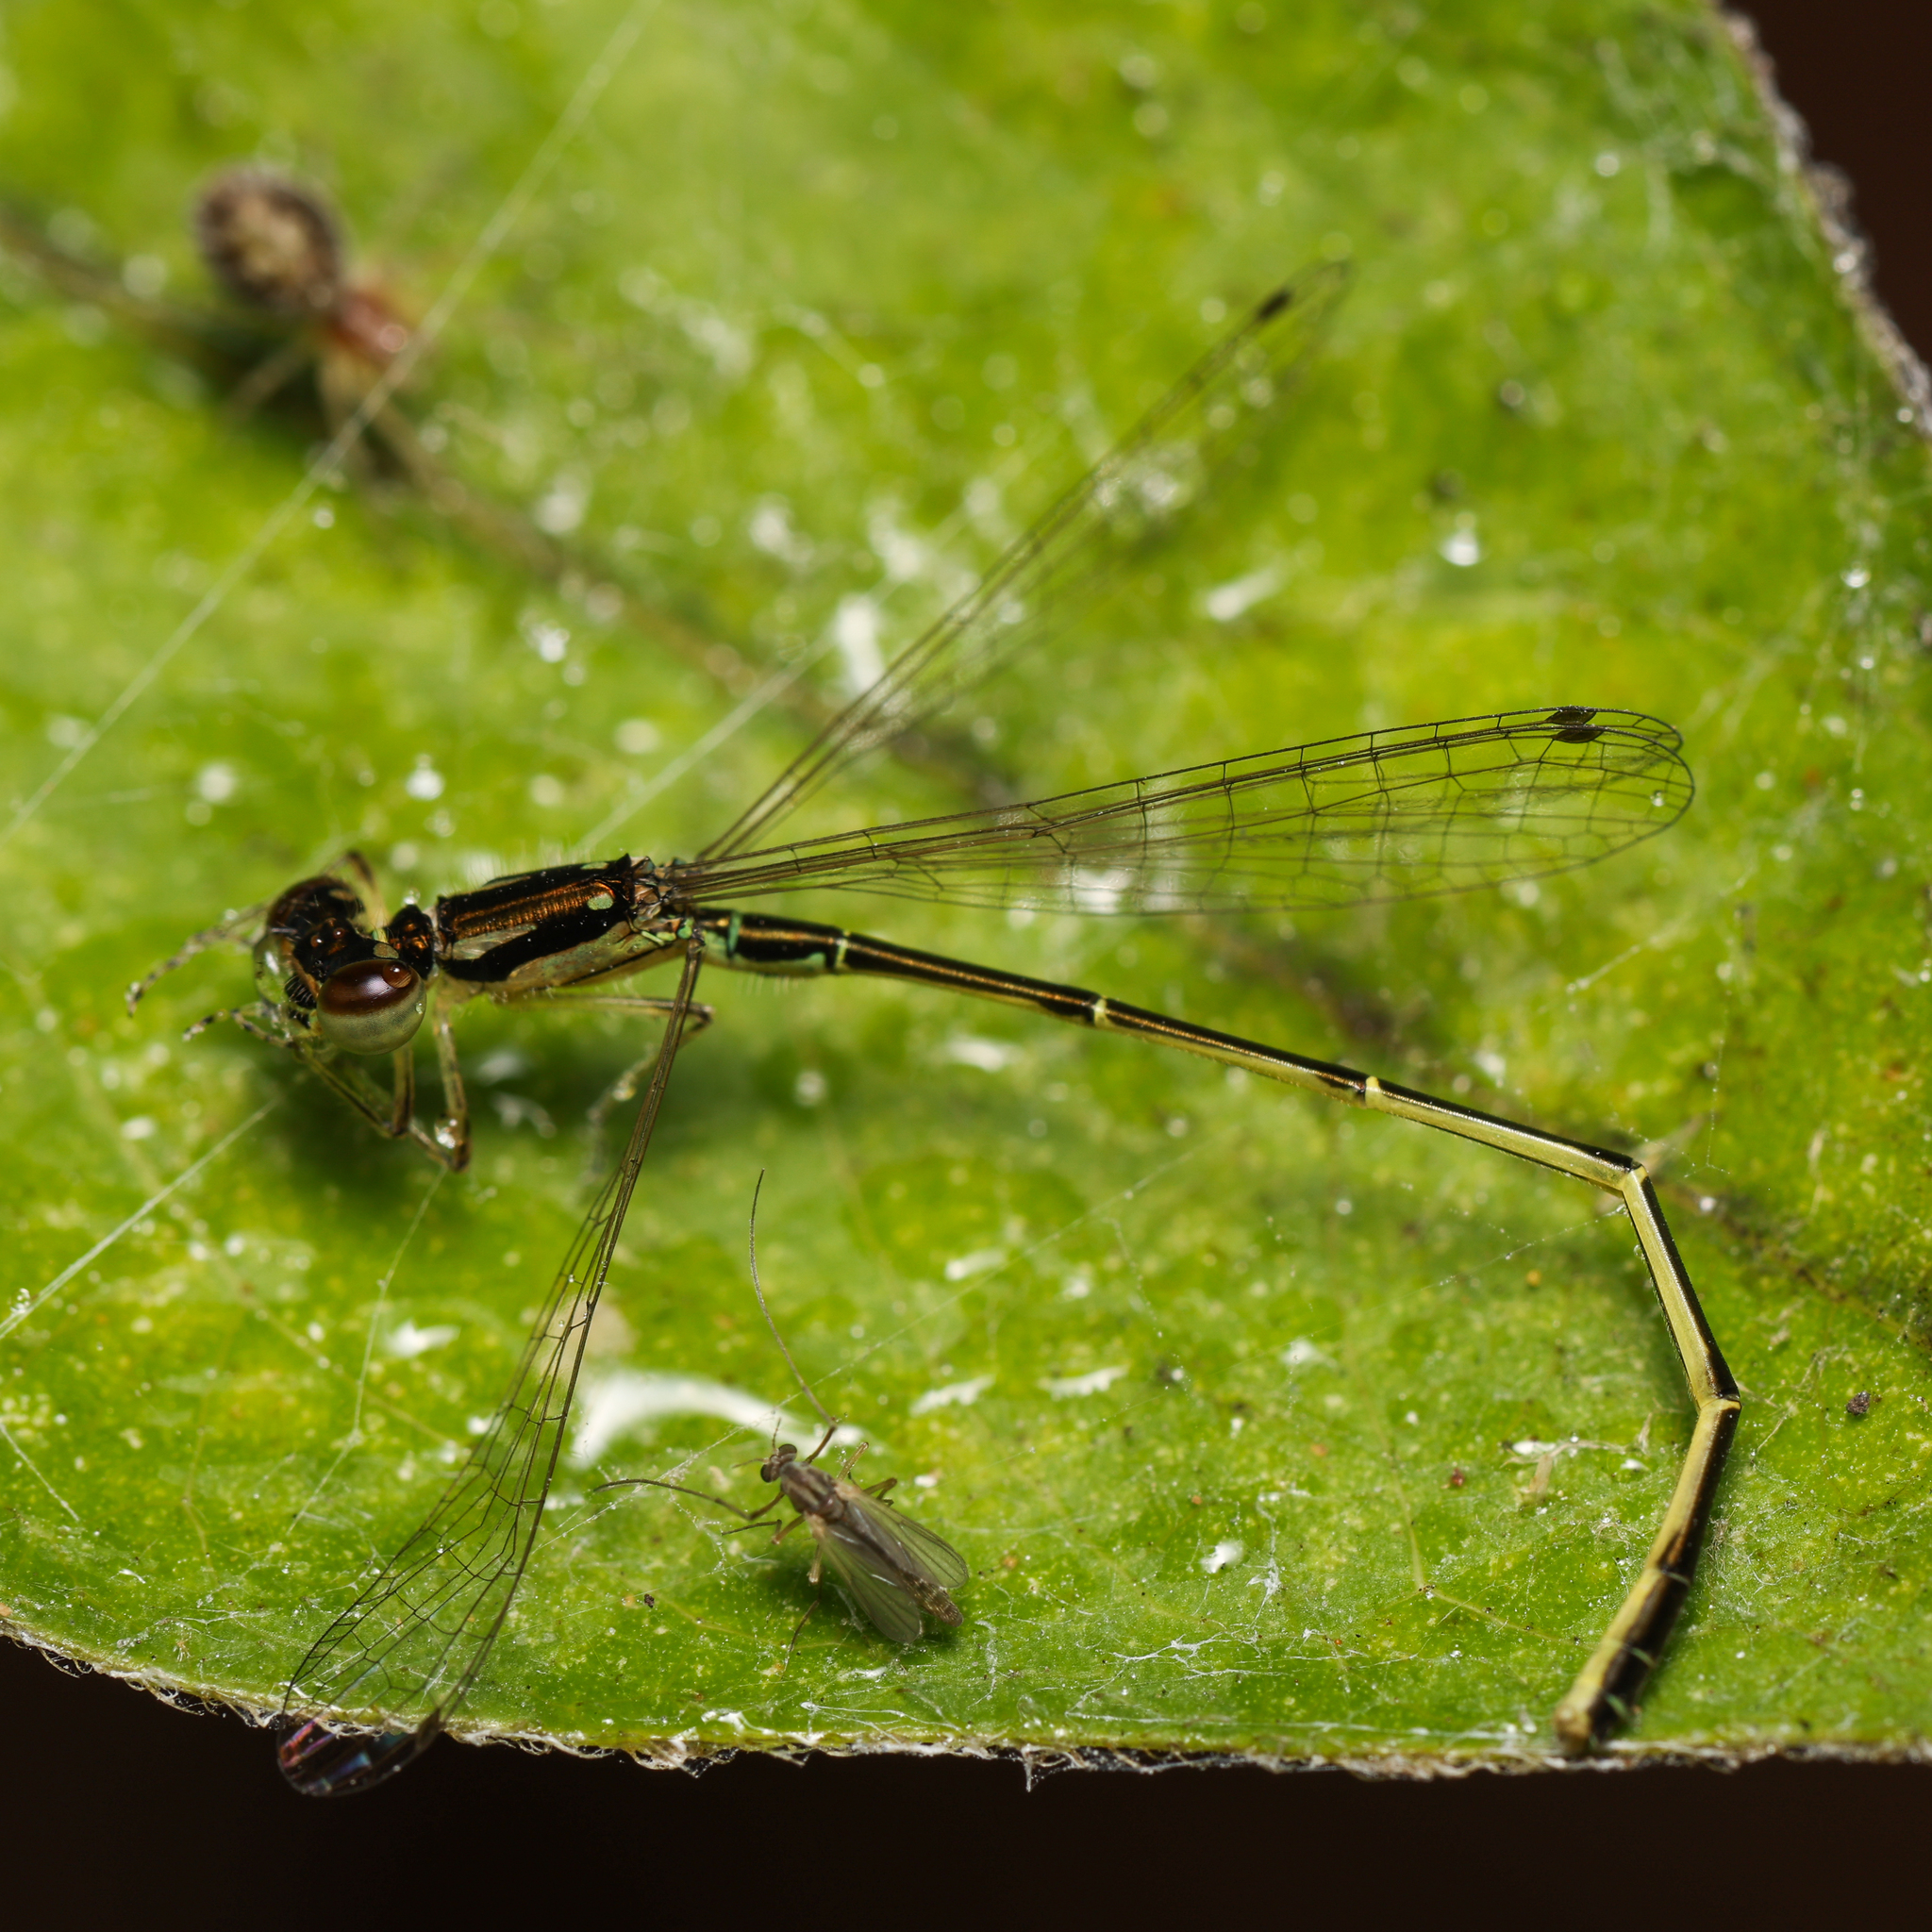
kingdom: Animalia
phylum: Arthropoda
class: Insecta
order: Odonata
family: Coenagrionidae
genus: Ischnura
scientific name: Ischnura posita
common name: Fragile forktail
